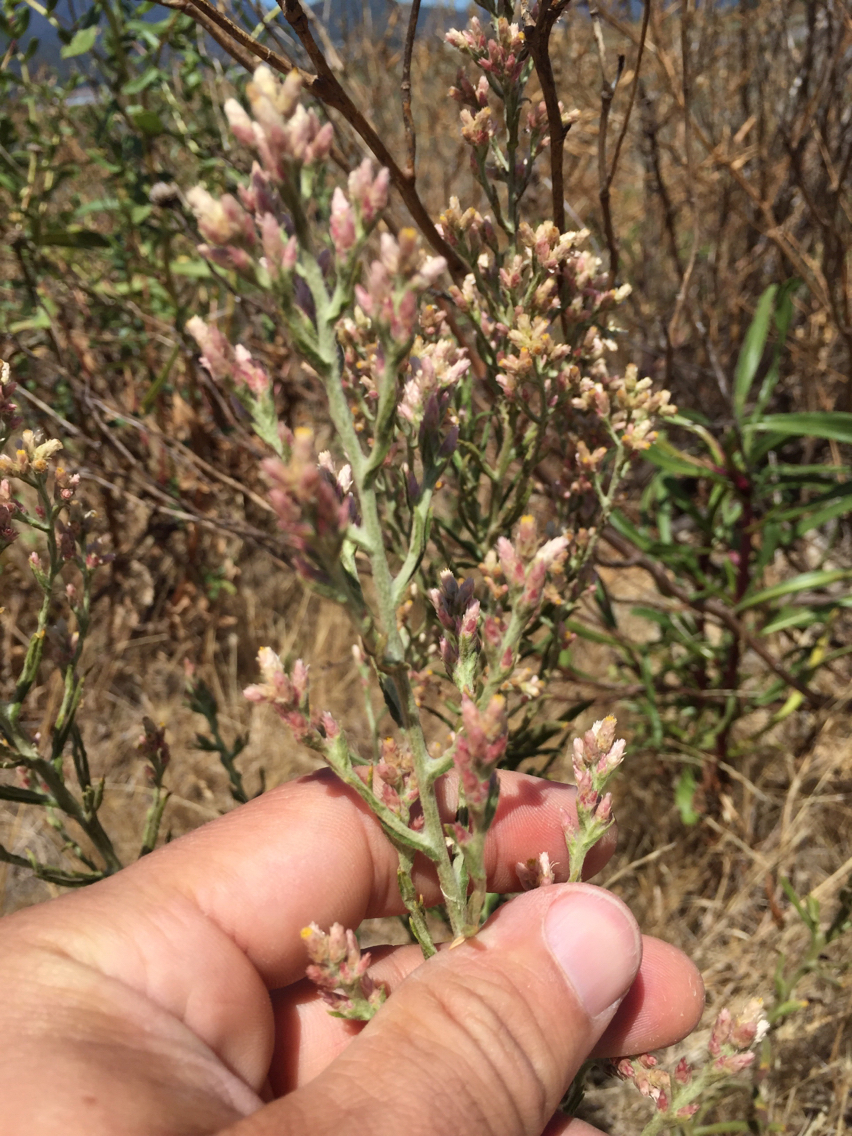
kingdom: Plantae
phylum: Tracheophyta
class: Magnoliopsida
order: Asterales
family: Asteraceae
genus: Pseudognaphalium
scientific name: Pseudognaphalium ramosissimum
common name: Pink rabbit-tobacco
